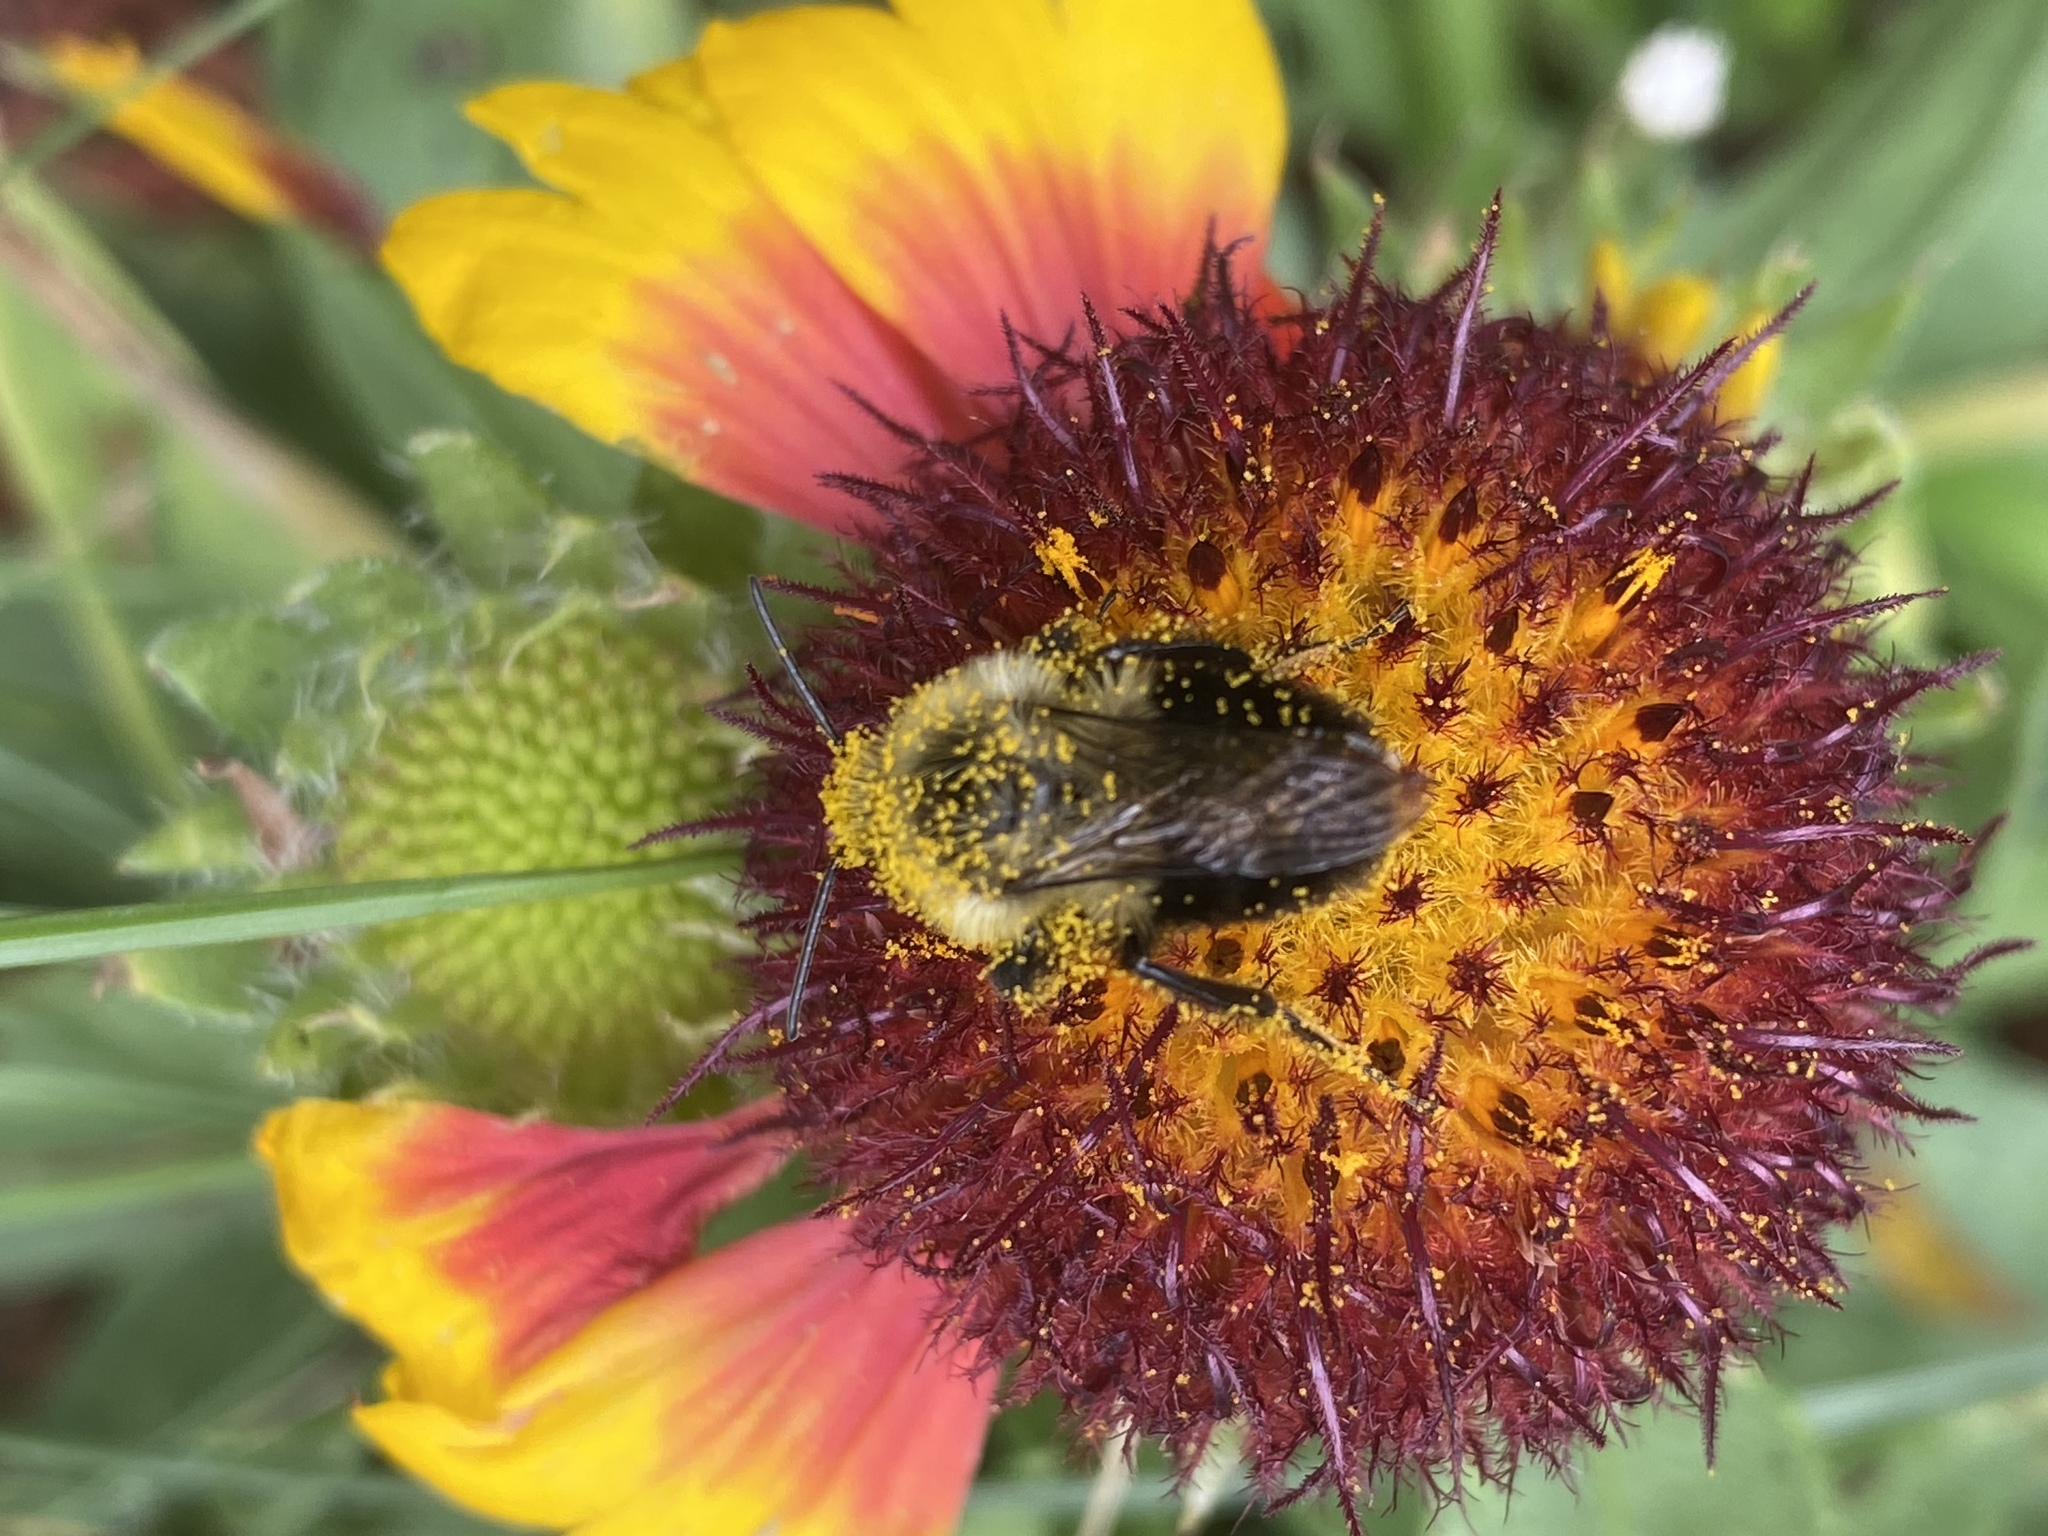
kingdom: Animalia
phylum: Arthropoda
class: Insecta
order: Hymenoptera
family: Apidae
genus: Bombus
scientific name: Bombus impatiens
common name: Common eastern bumble bee
